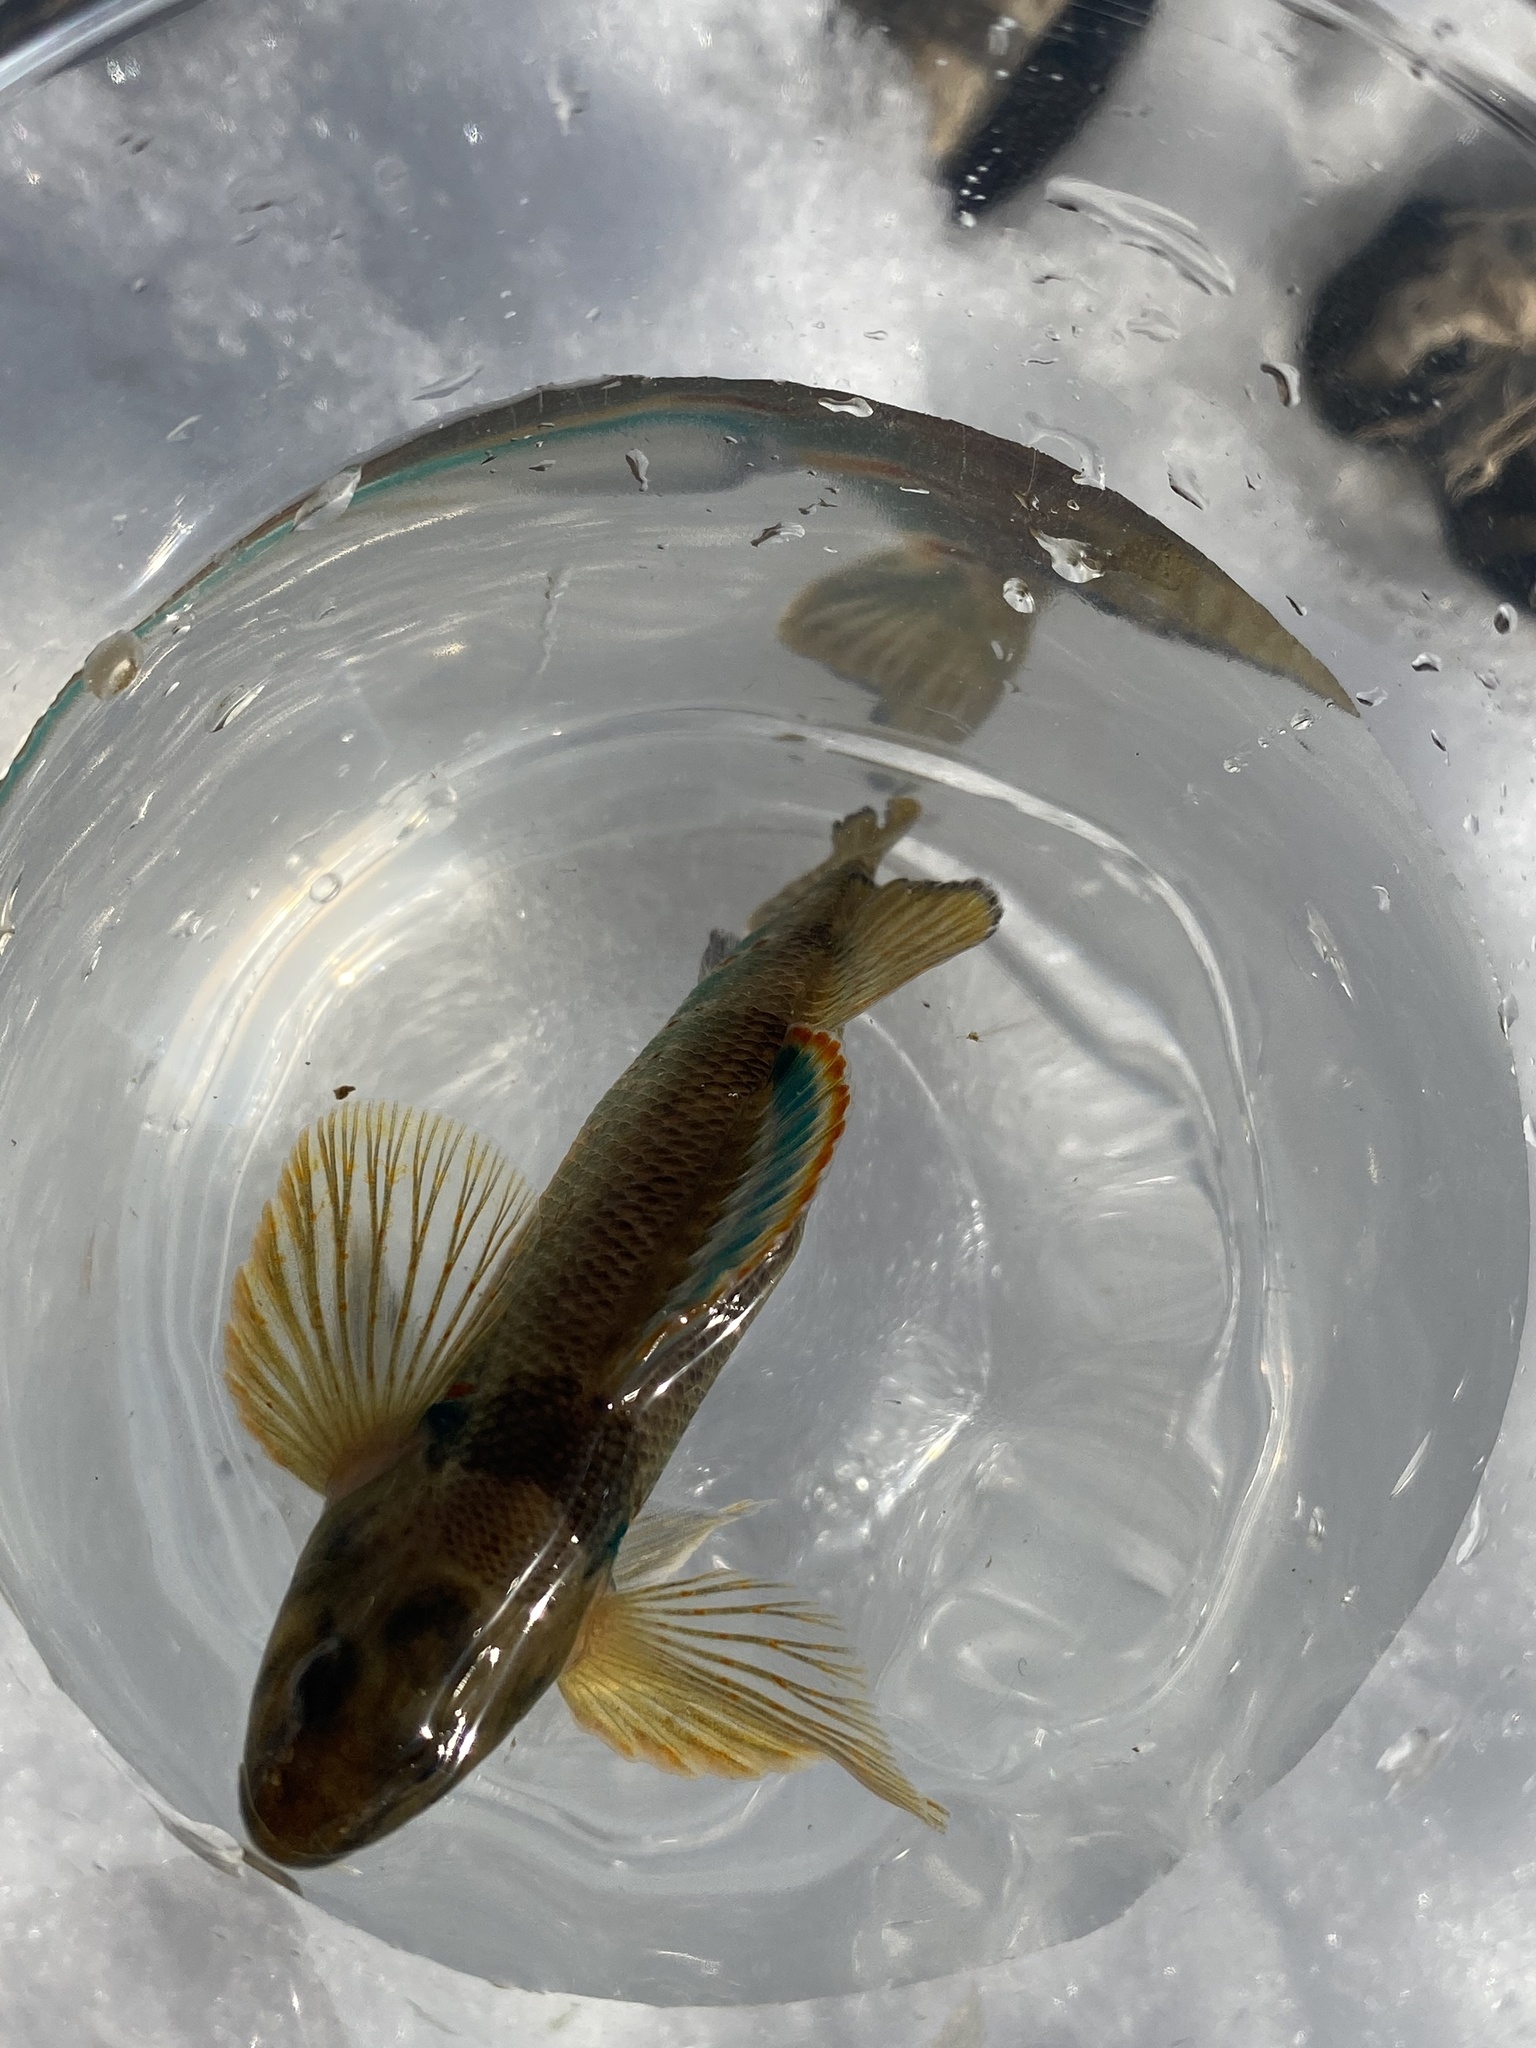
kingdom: Animalia
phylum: Chordata
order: Perciformes
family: Percidae
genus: Etheostoma
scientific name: Etheostoma variatum
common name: Variegate darter
